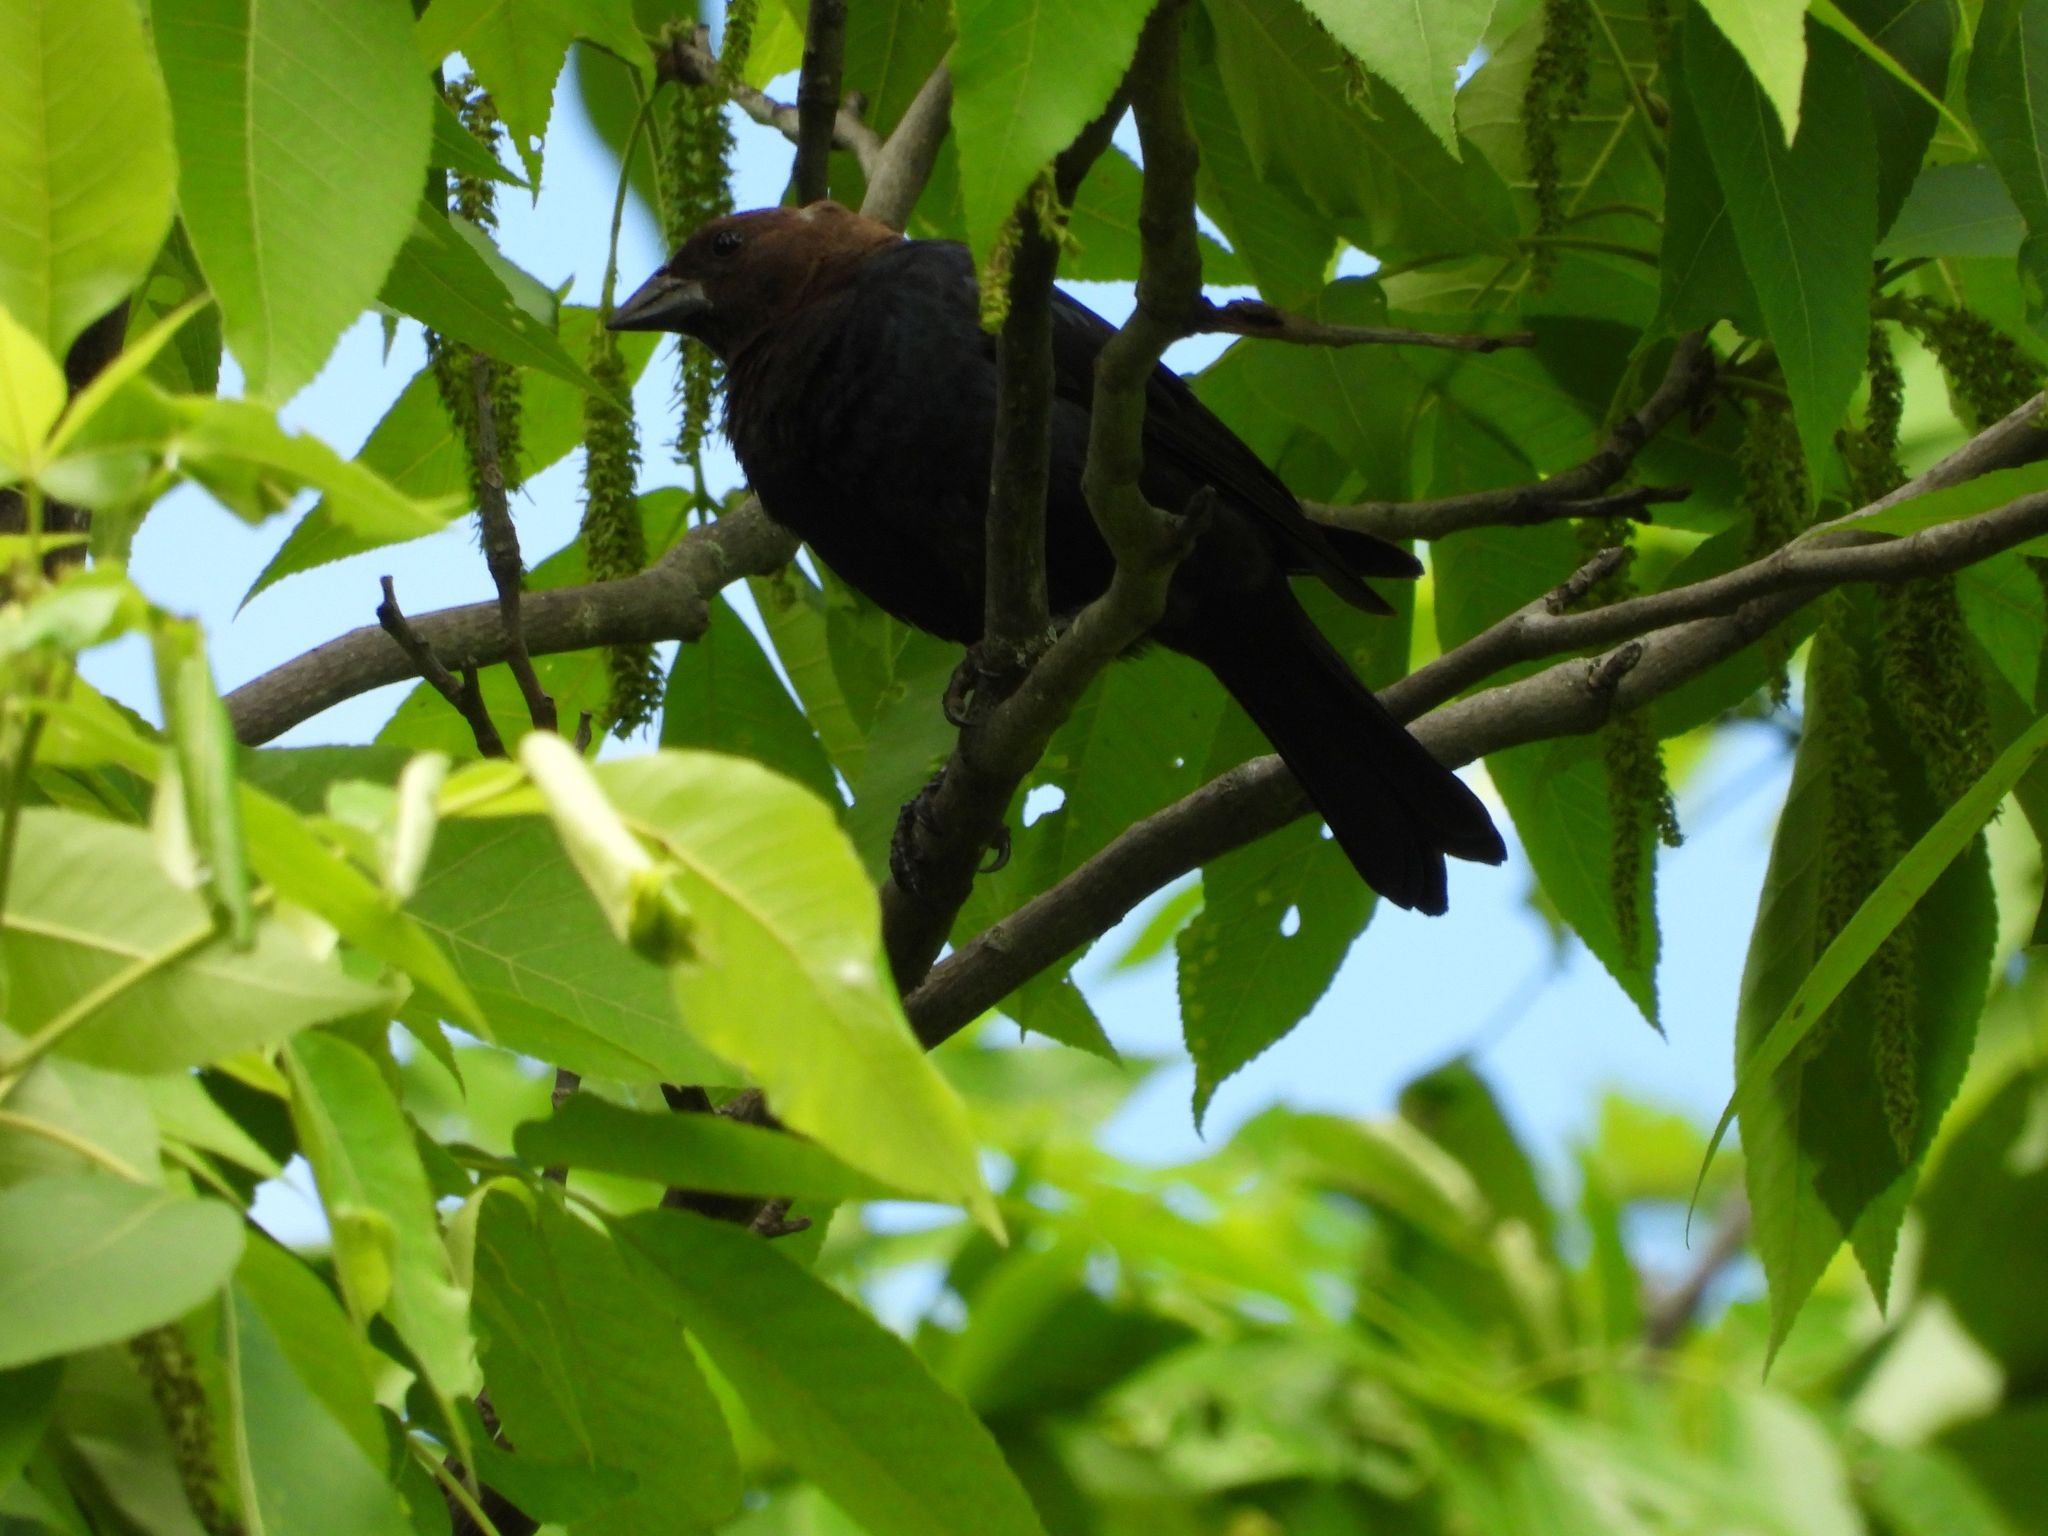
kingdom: Animalia
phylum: Chordata
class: Aves
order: Passeriformes
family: Icteridae
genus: Molothrus
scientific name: Molothrus ater
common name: Brown-headed cowbird
